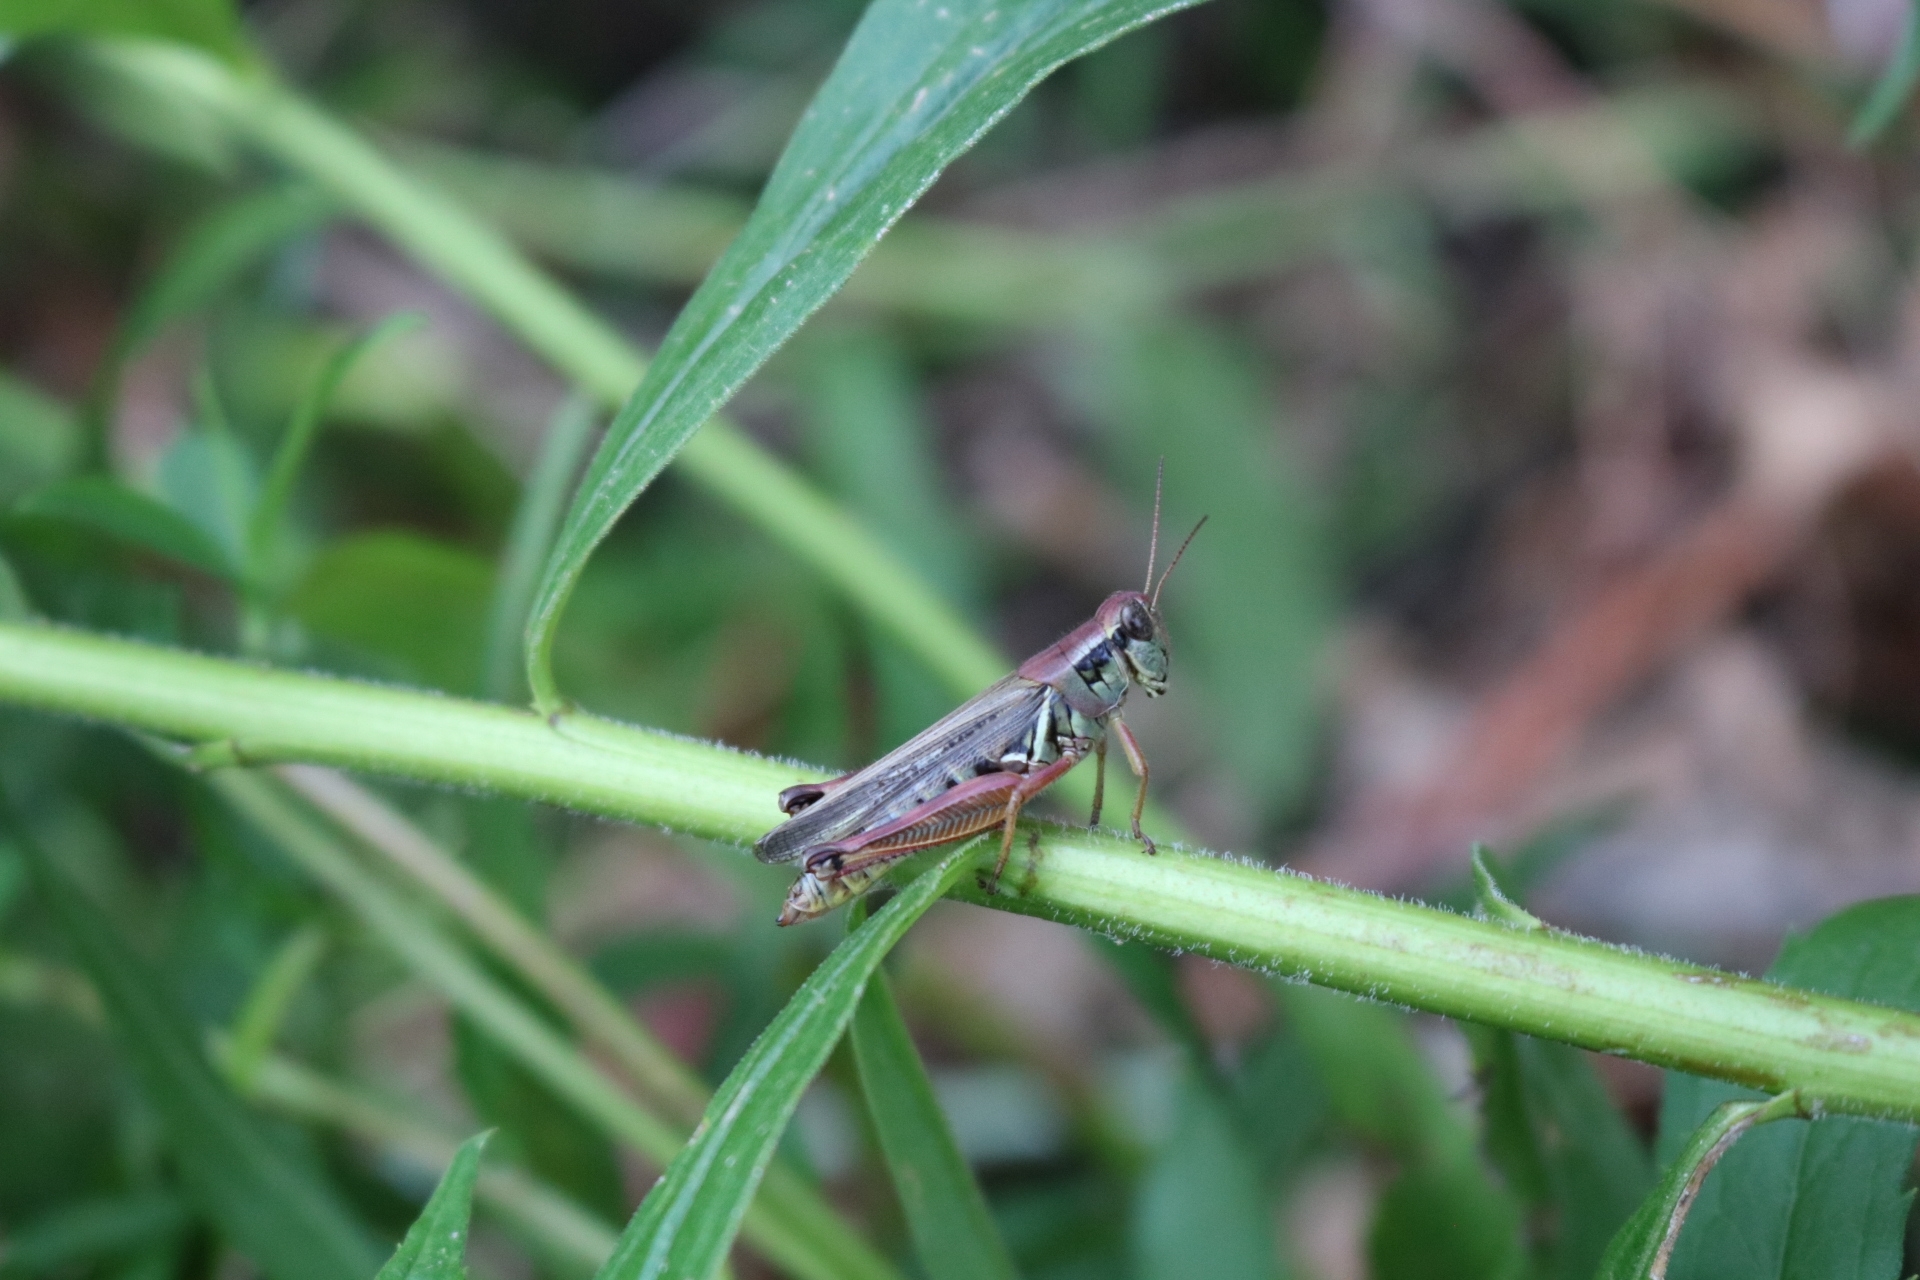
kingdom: Animalia
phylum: Arthropoda
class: Insecta
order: Orthoptera
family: Acrididae
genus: Melanoplus
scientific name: Melanoplus femurrubrum
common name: Red-legged grasshopper
